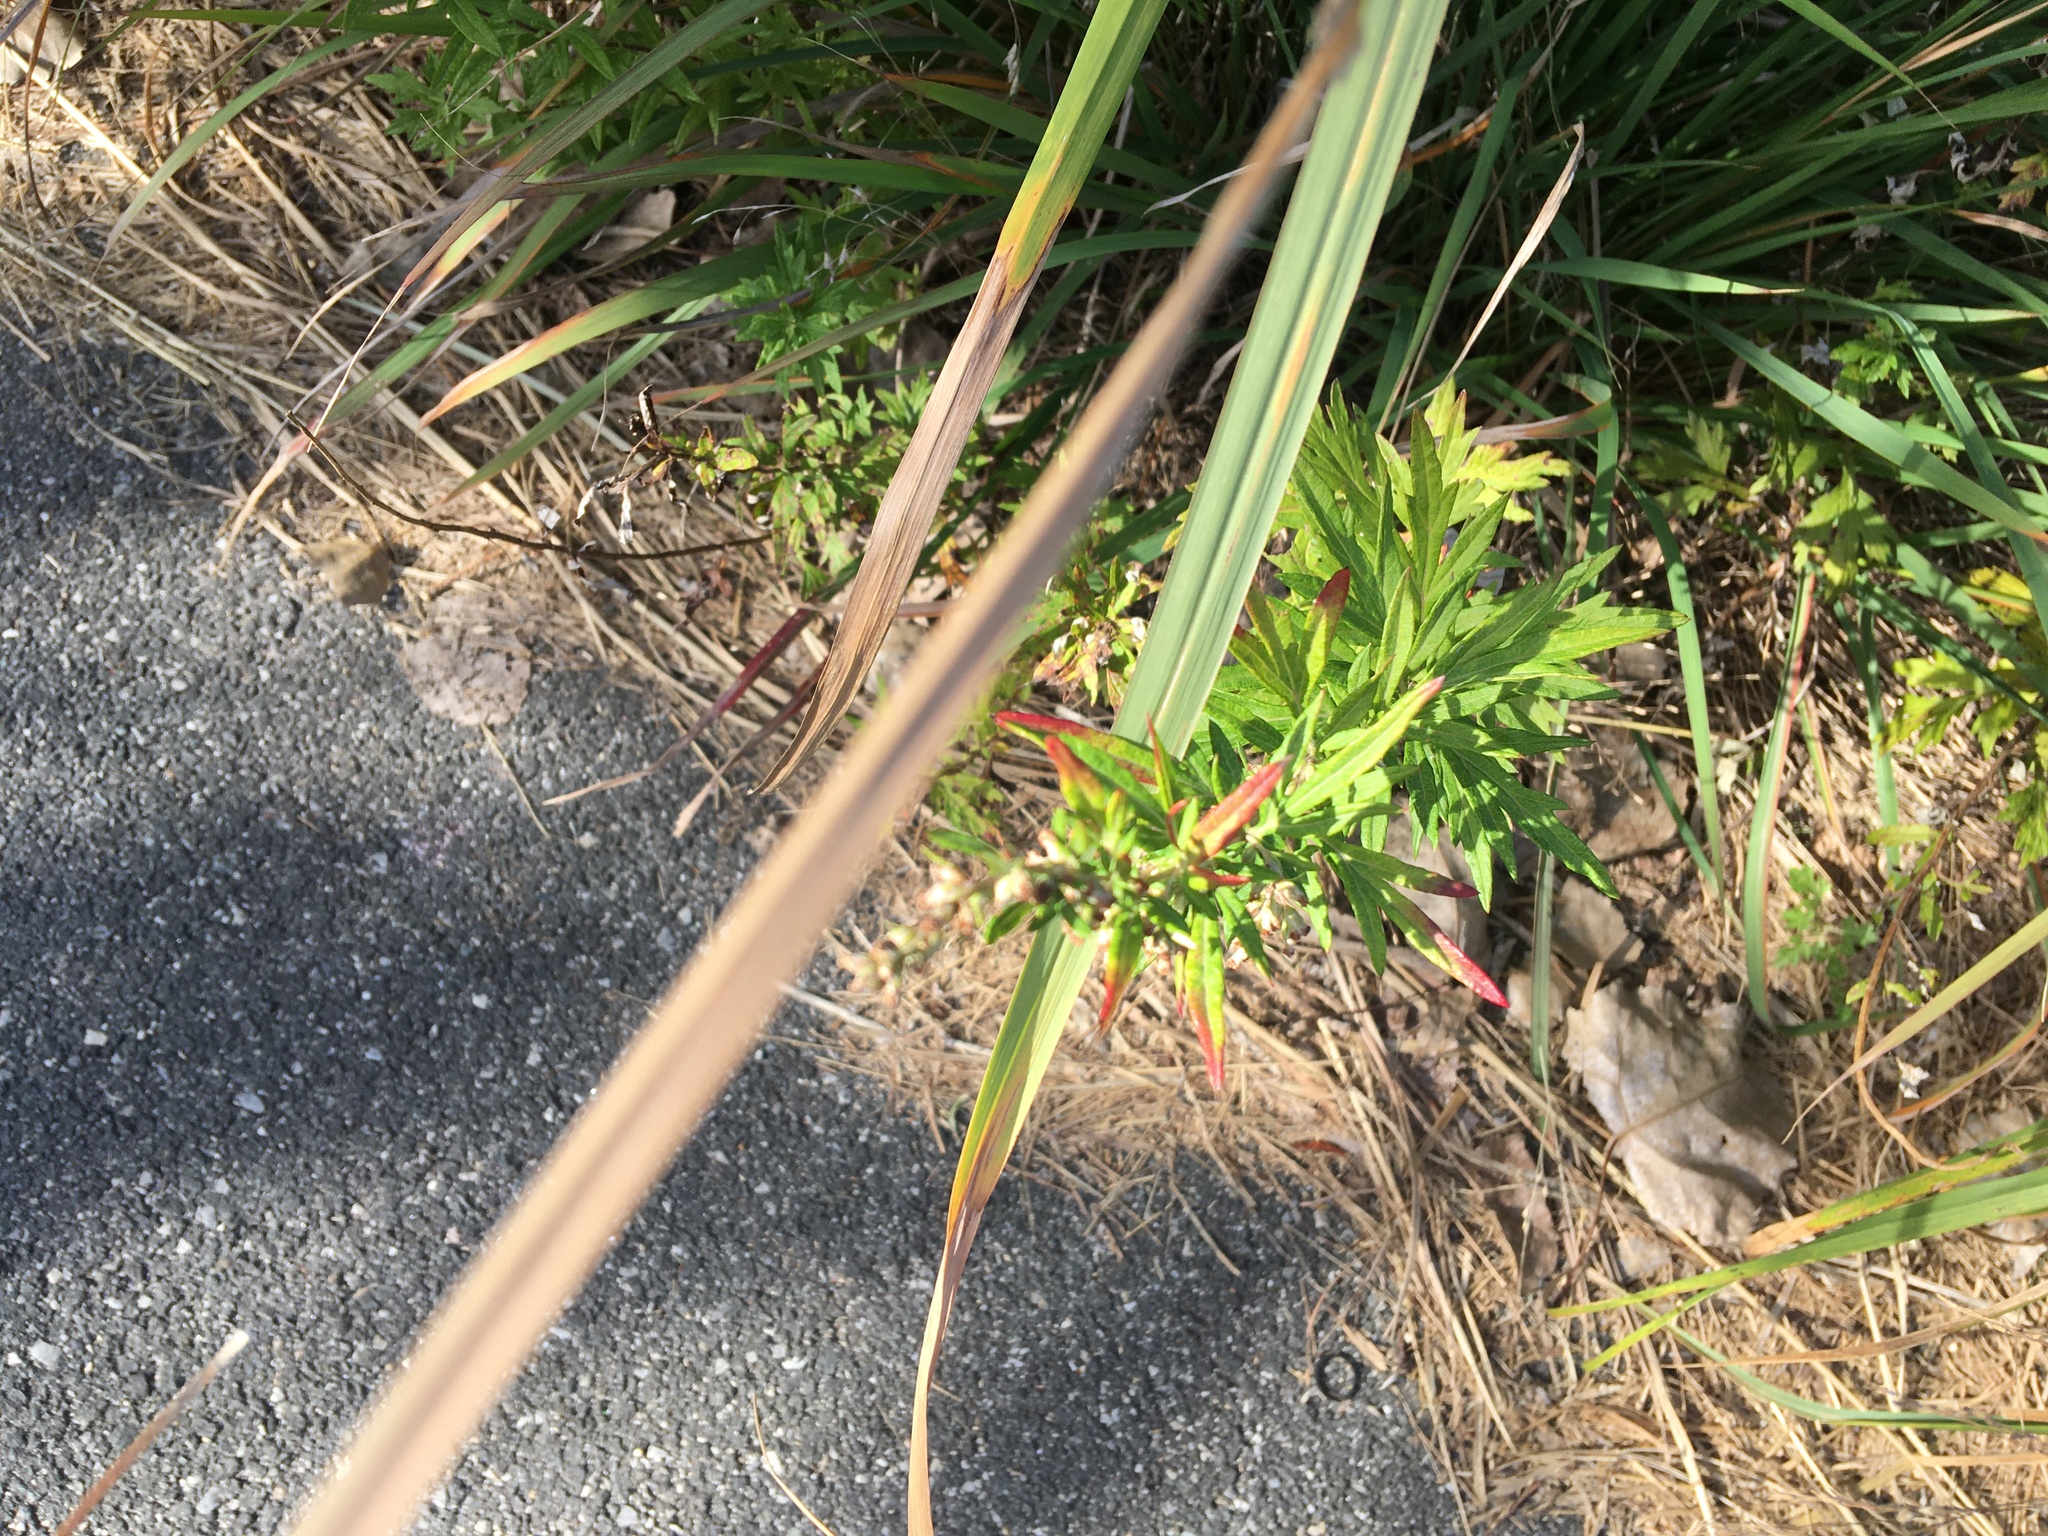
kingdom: Plantae
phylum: Tracheophyta
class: Magnoliopsida
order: Asterales
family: Asteraceae
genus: Artemisia
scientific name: Artemisia vulgaris
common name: Mugwort
